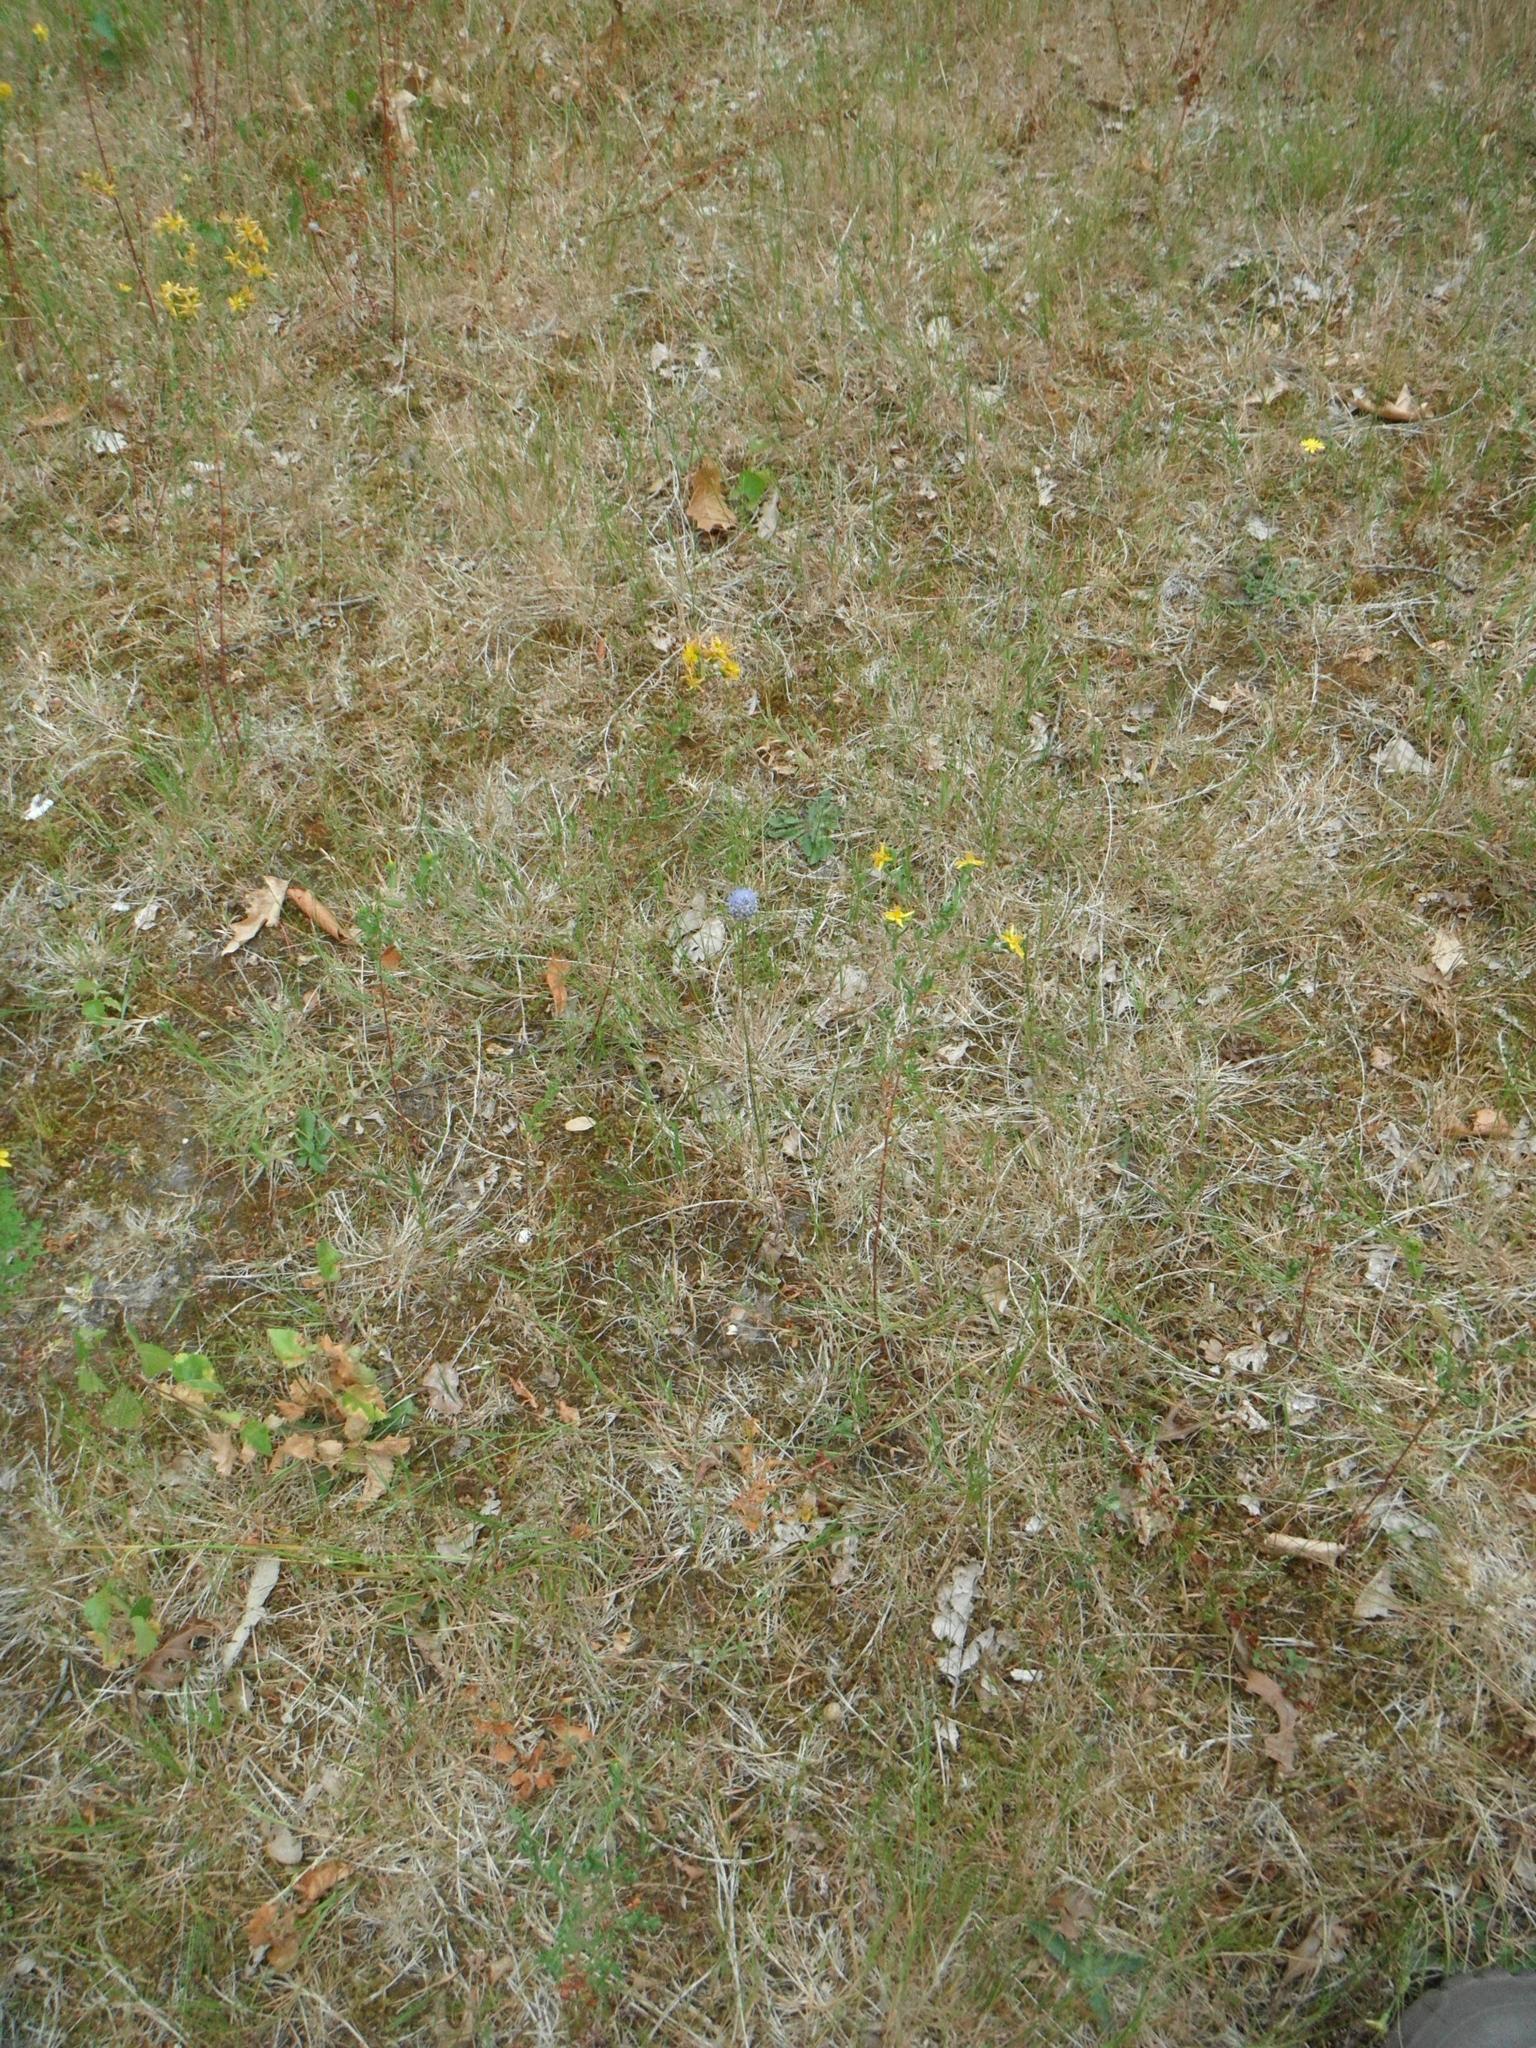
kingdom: Plantae
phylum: Tracheophyta
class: Magnoliopsida
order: Asterales
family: Campanulaceae
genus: Jasione
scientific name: Jasione montana
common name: Sheep's-bit
